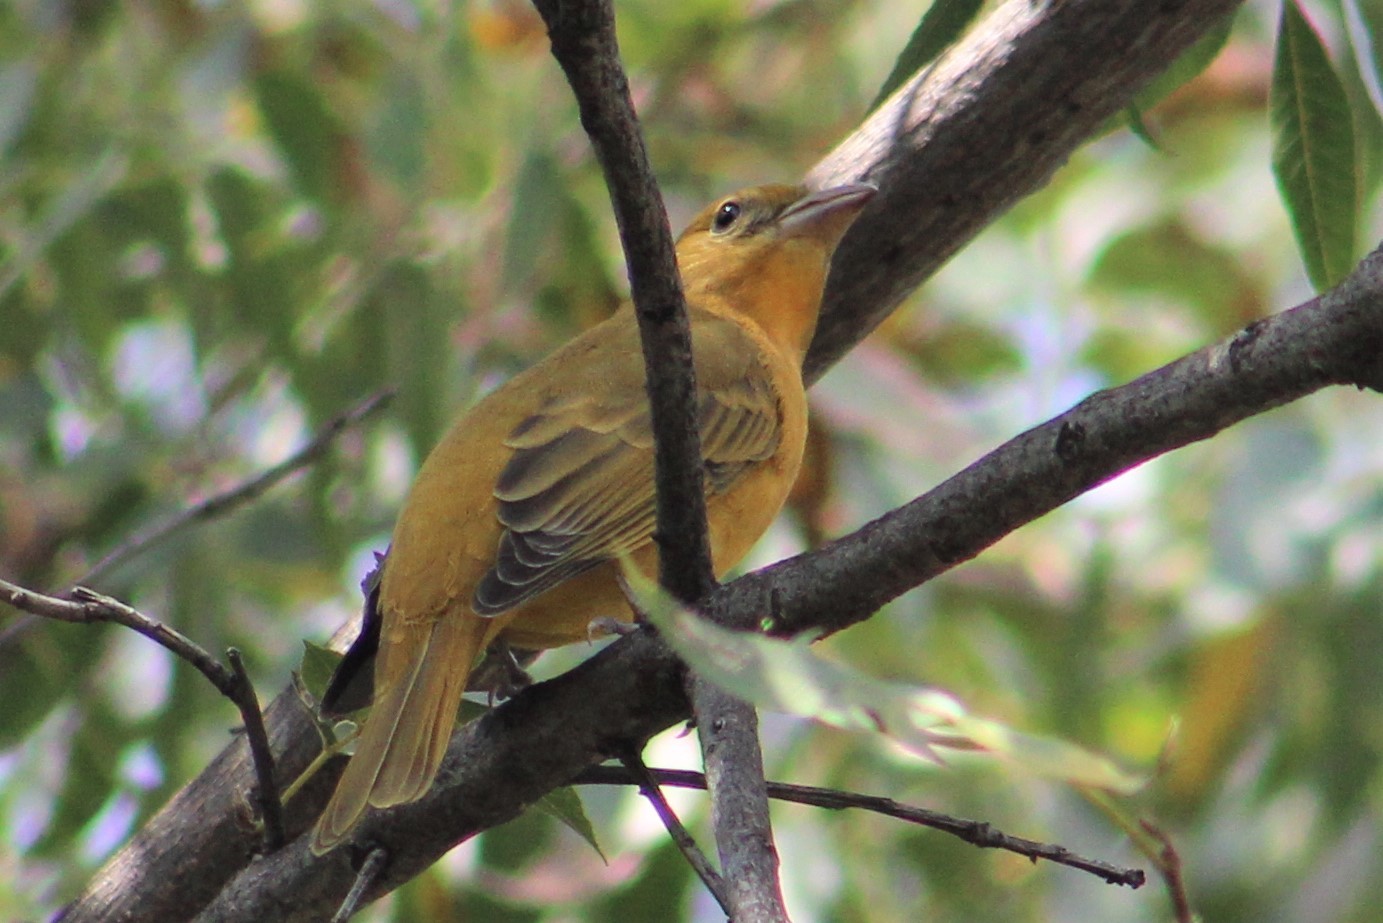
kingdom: Animalia
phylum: Chordata
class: Aves
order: Passeriformes
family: Cardinalidae
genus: Piranga
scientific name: Piranga rubra
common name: Summer tanager
